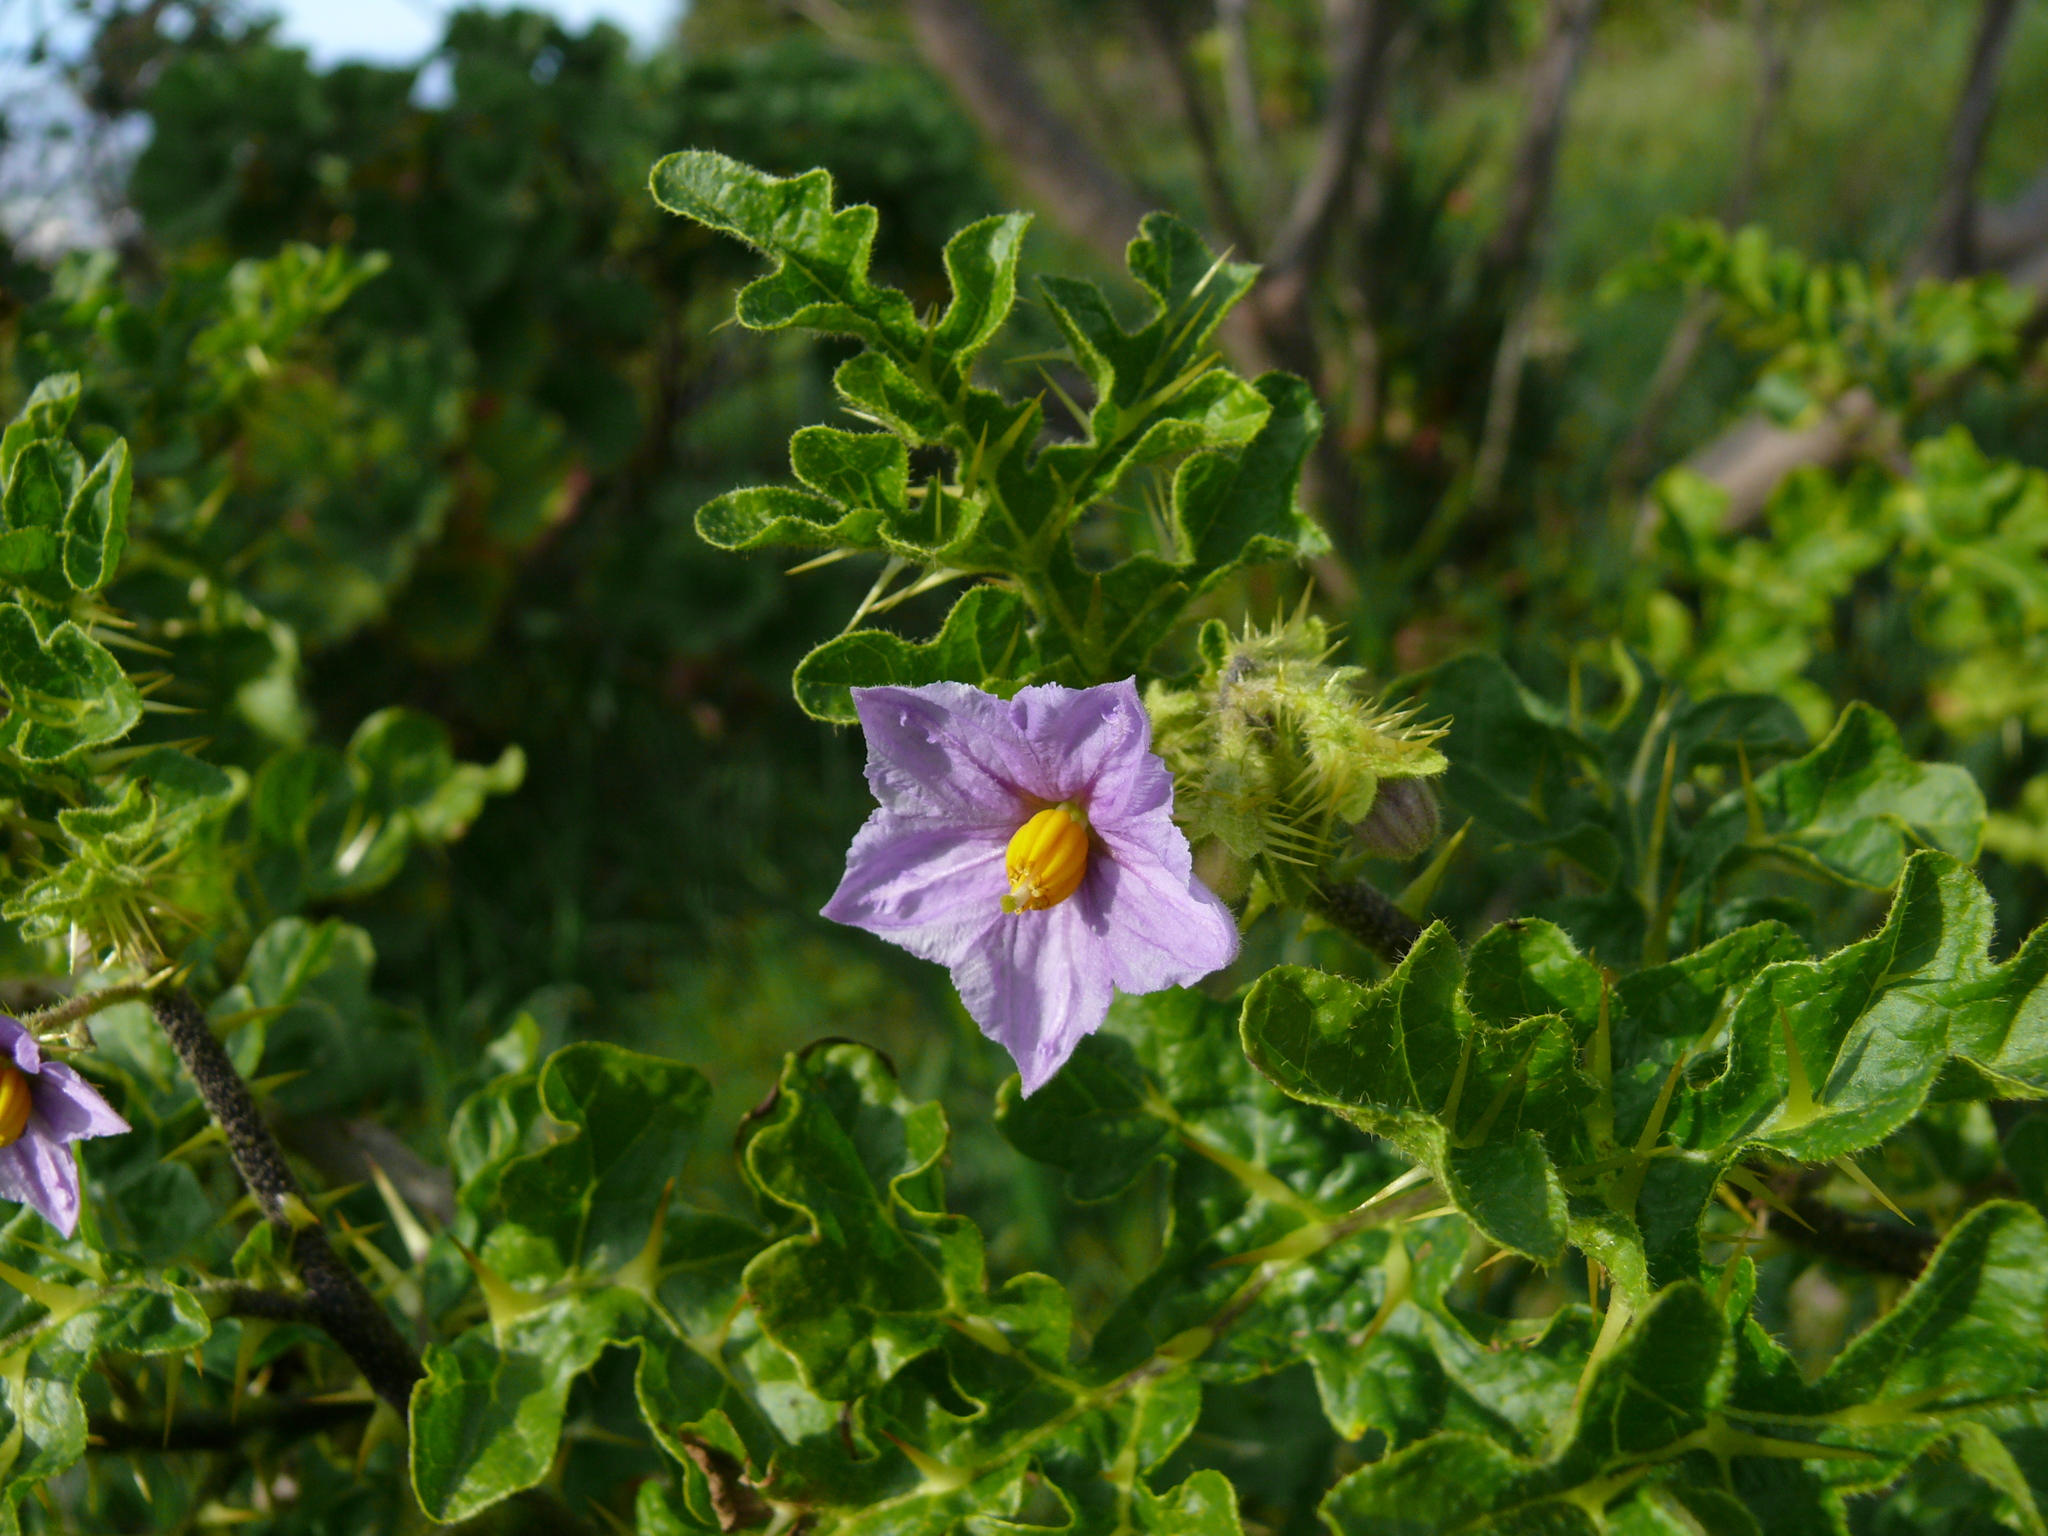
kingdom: Plantae
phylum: Tracheophyta
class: Magnoliopsida
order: Solanales
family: Solanaceae
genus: Solanum
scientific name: Solanum linnaeanum
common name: Nightshade
